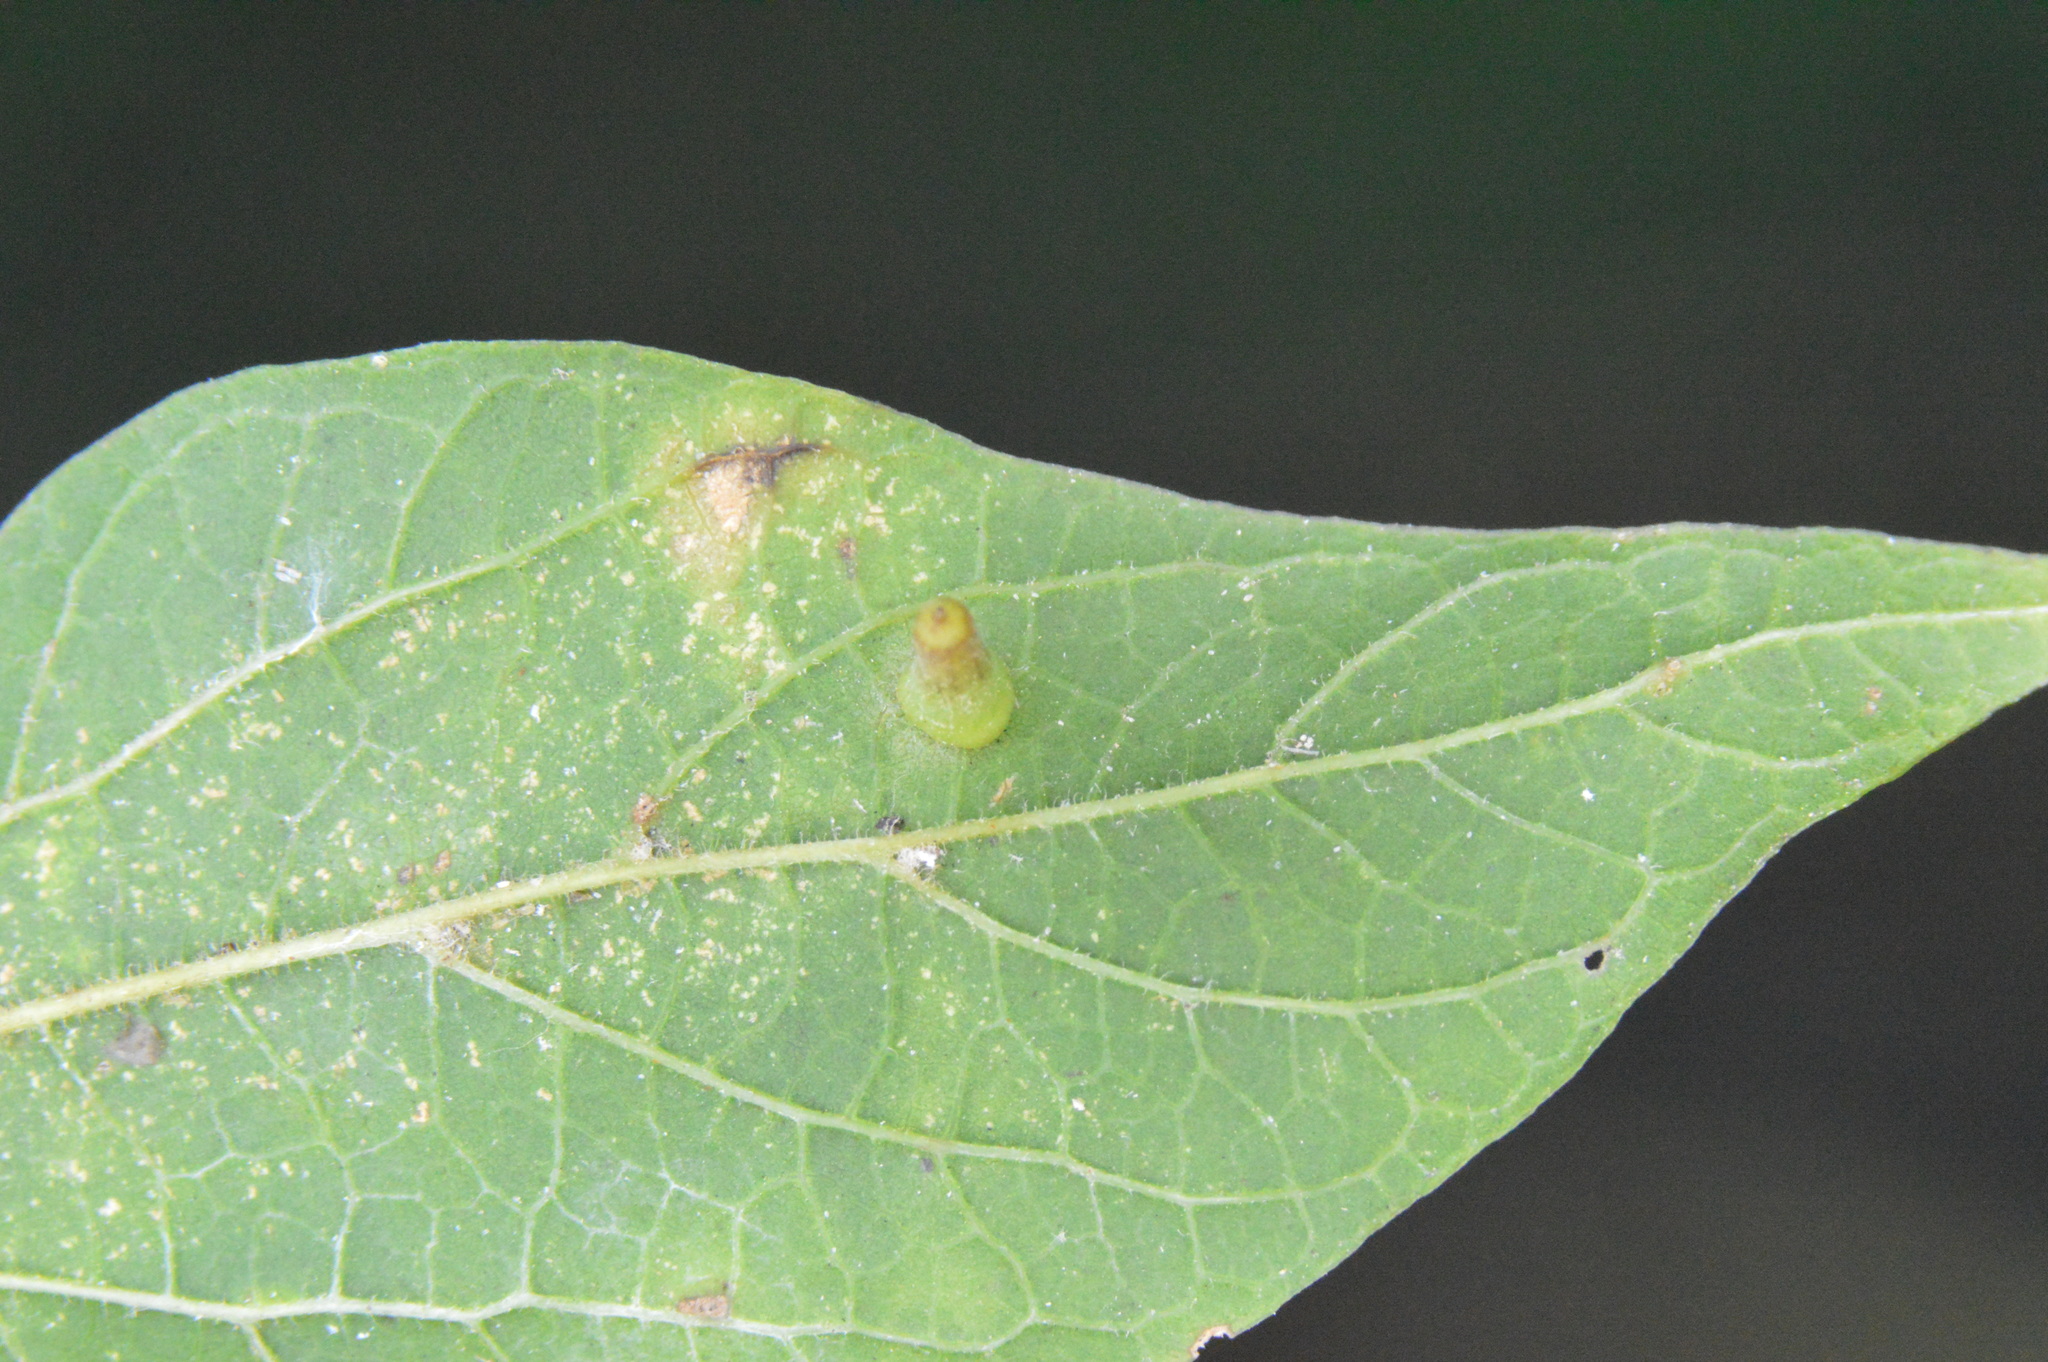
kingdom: Animalia
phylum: Arthropoda
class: Insecta
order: Diptera
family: Cecidomyiidae
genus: Celticecis
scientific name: Celticecis aciculata
